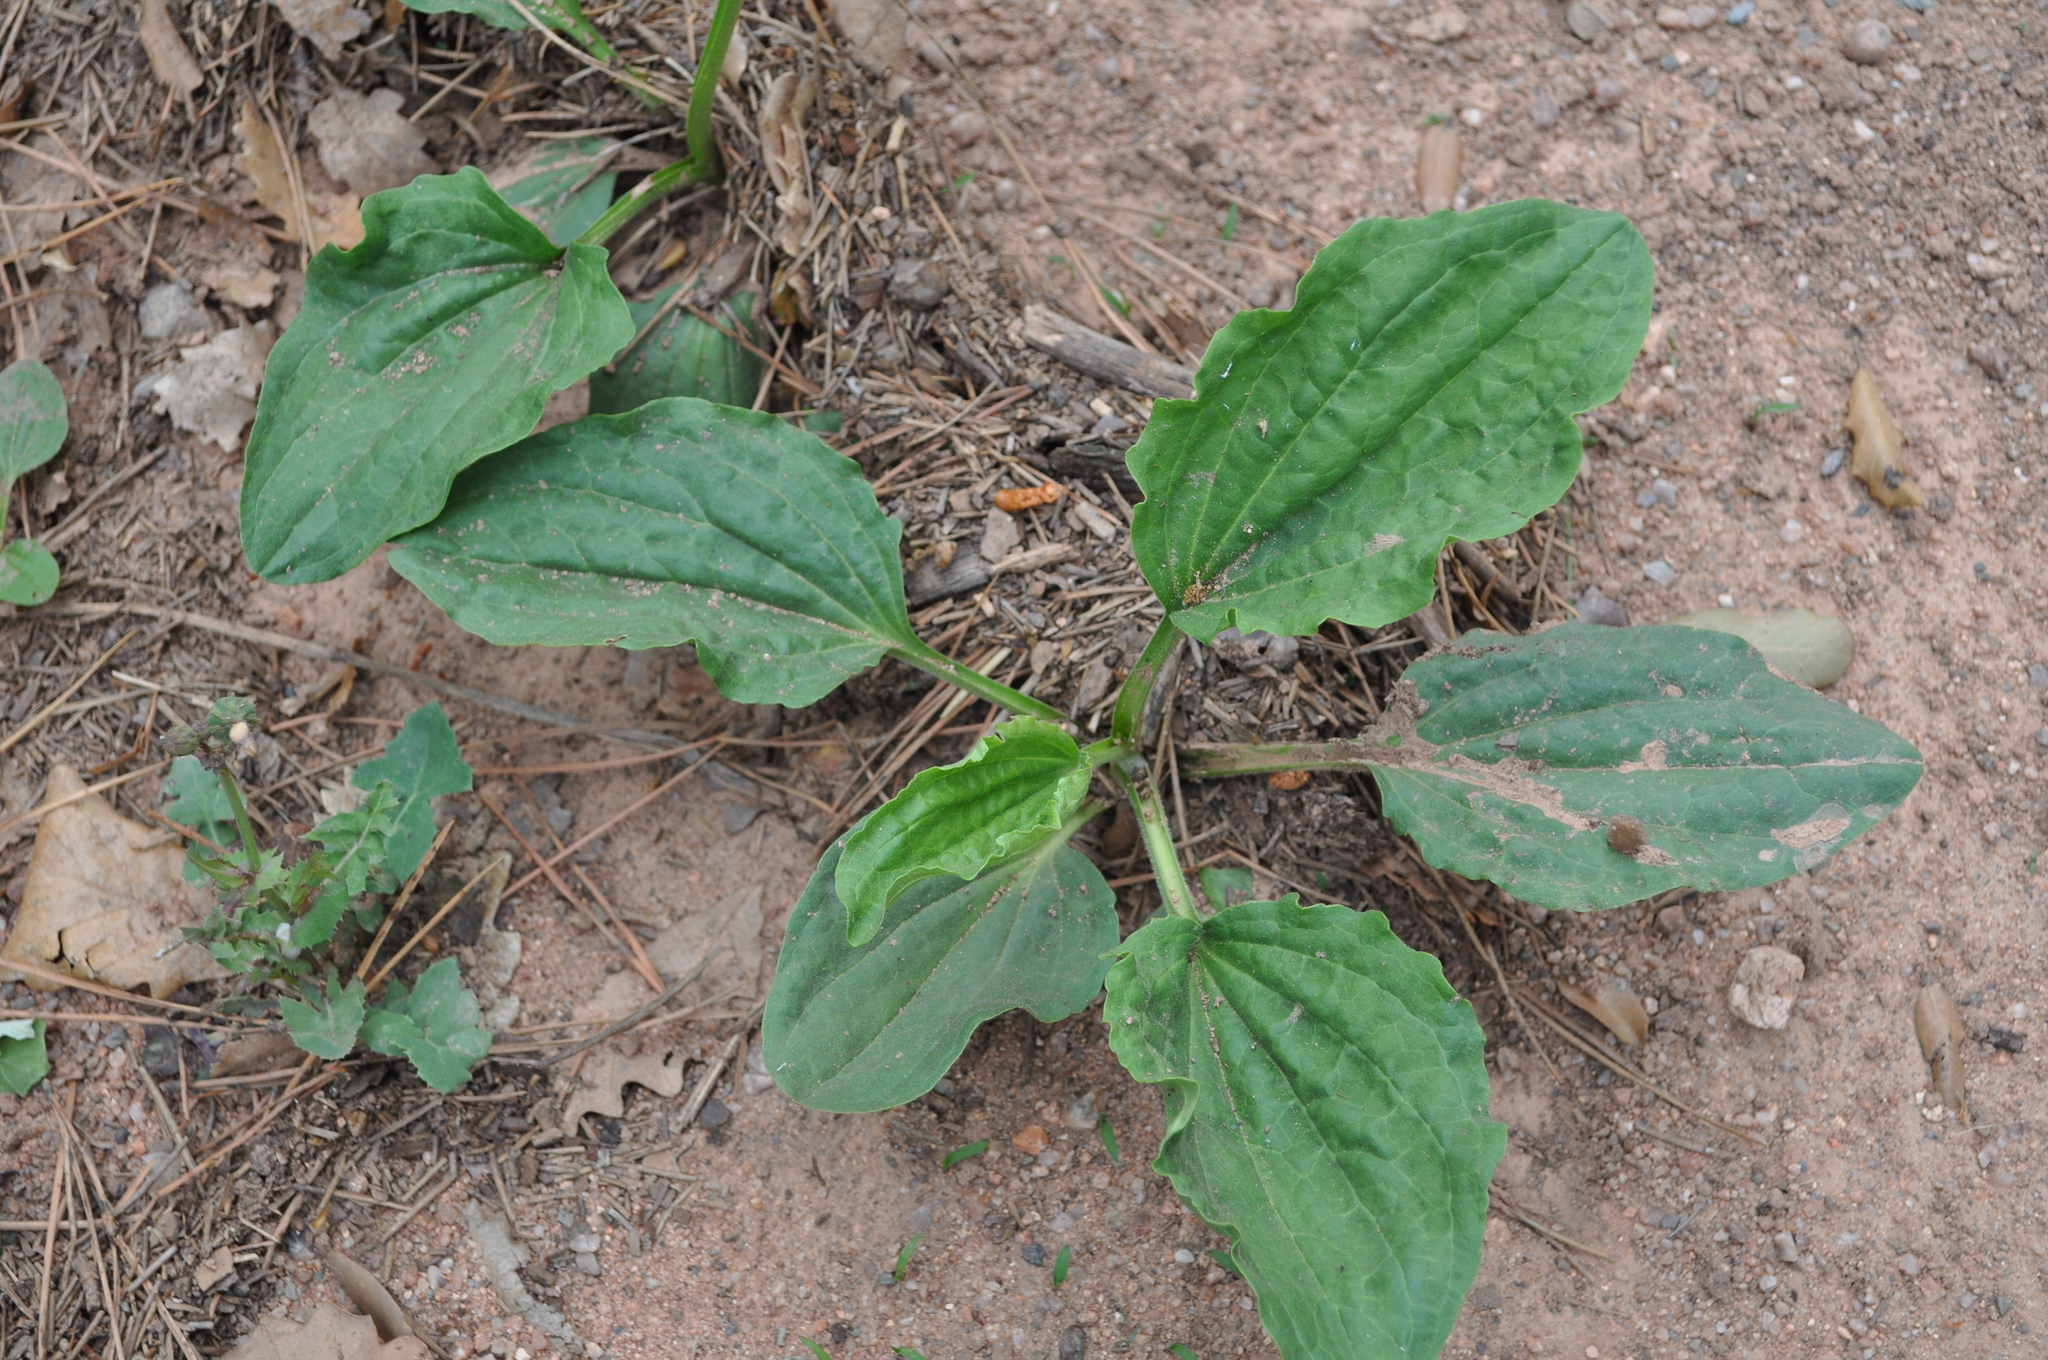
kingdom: Plantae
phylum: Tracheophyta
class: Magnoliopsida
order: Lamiales
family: Plantaginaceae
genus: Plantago
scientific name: Plantago major
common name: Common plantain
